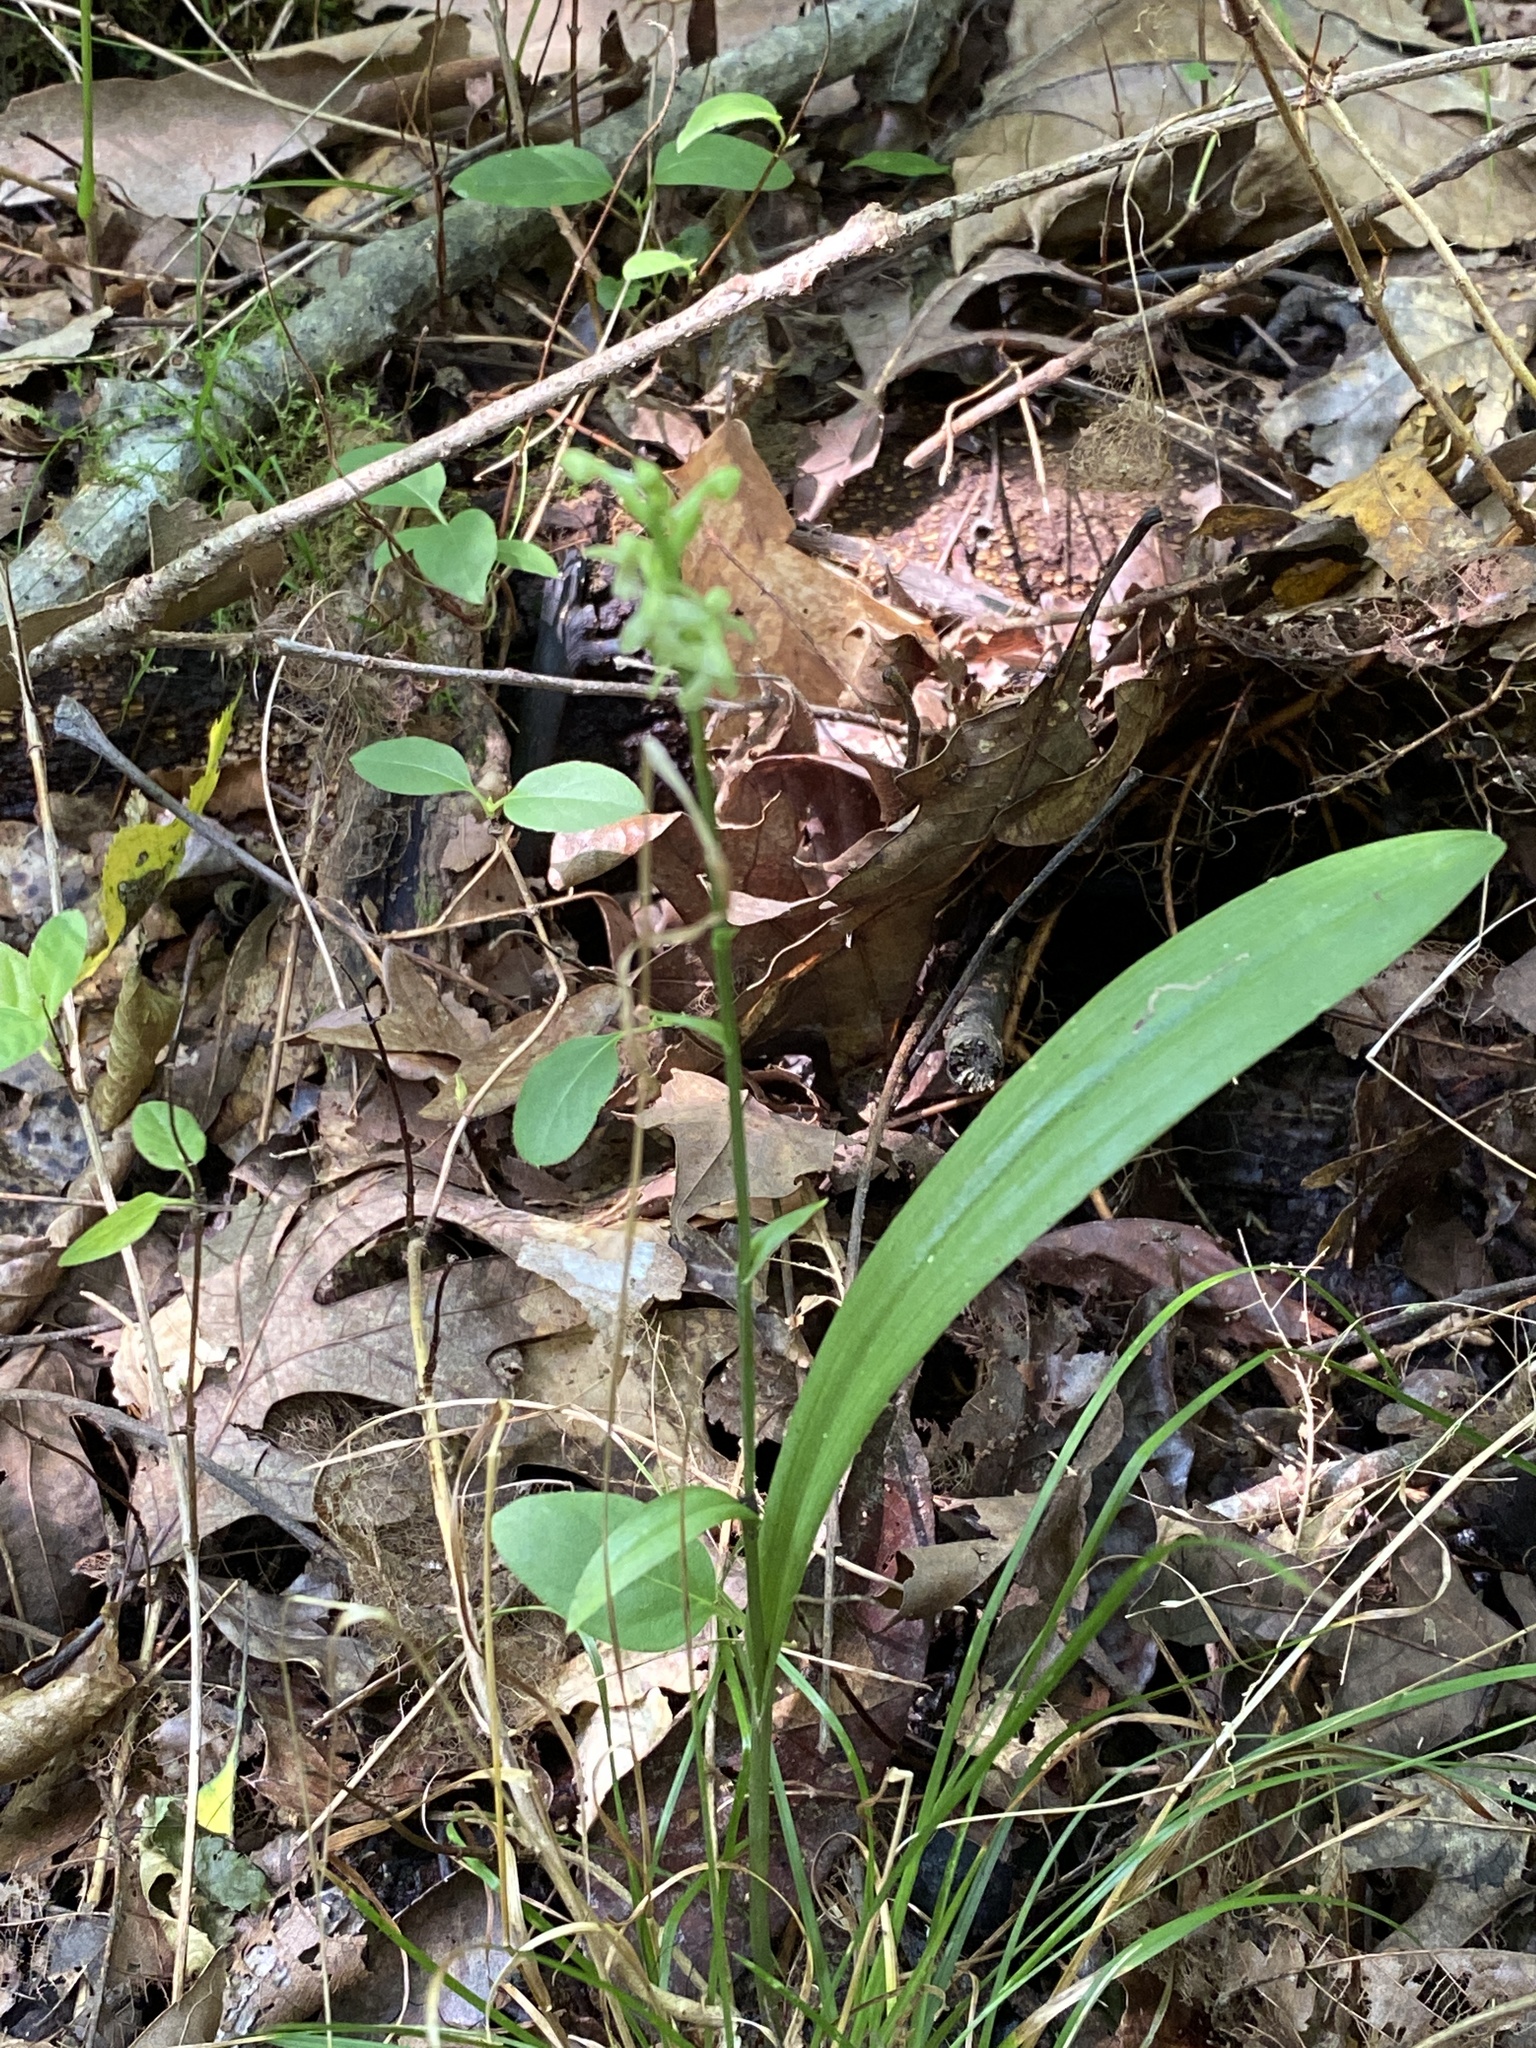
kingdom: Plantae
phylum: Tracheophyta
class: Liliopsida
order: Asparagales
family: Orchidaceae
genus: Platanthera
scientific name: Platanthera clavellata
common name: Club-spur orchid
